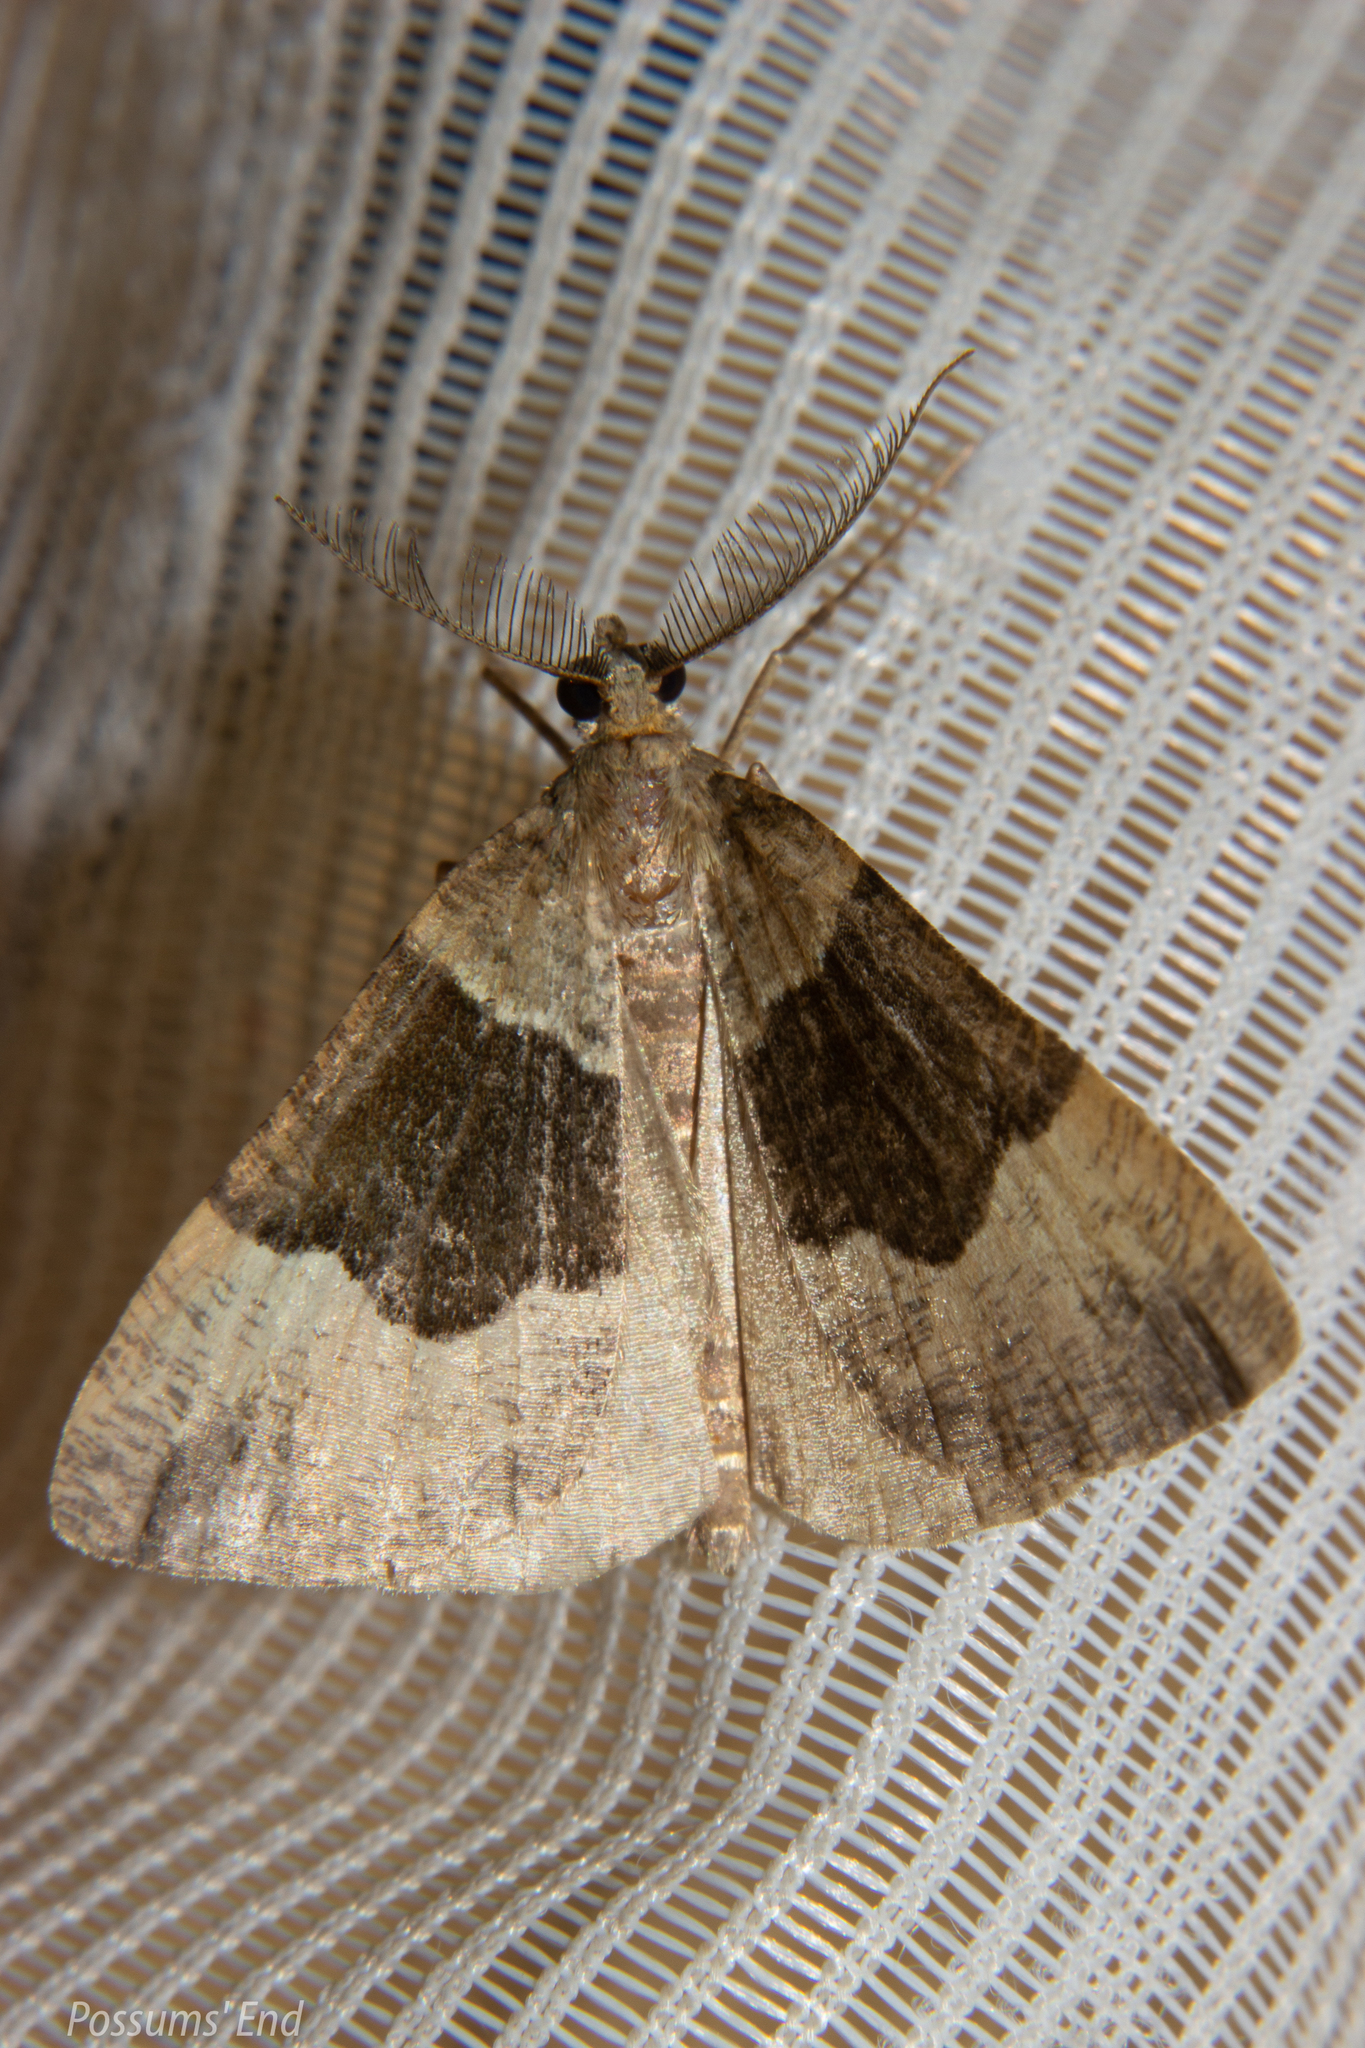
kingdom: Animalia
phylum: Arthropoda
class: Insecta
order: Lepidoptera
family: Geometridae
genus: Pseudocoremia
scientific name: Pseudocoremia
